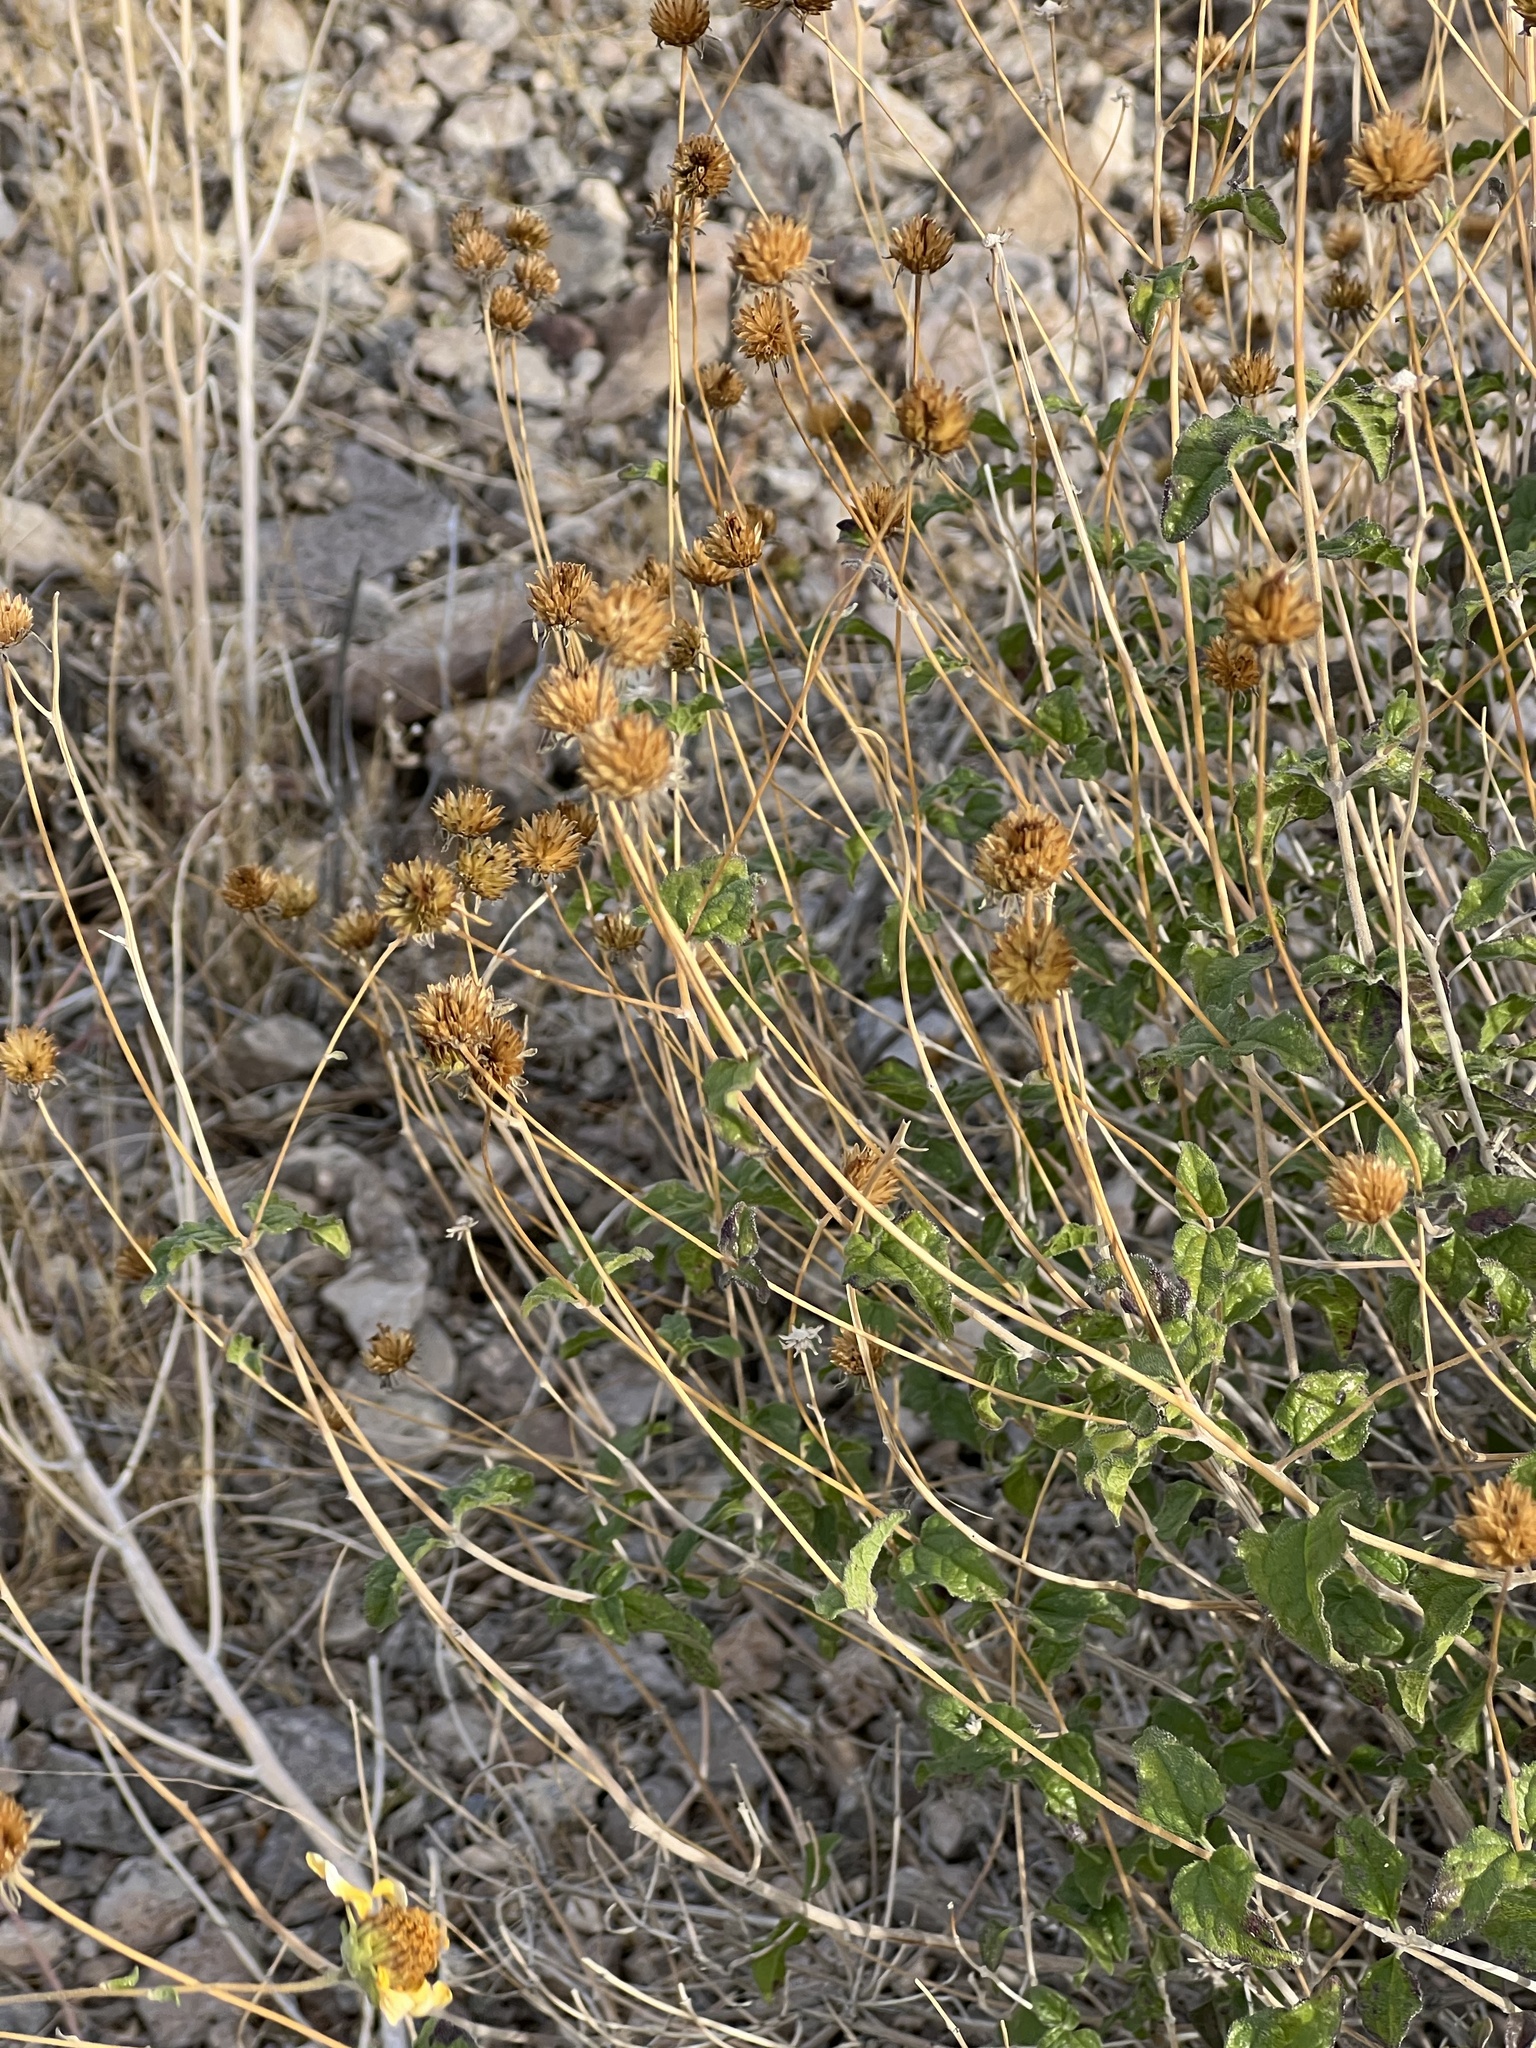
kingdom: Plantae
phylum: Tracheophyta
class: Magnoliopsida
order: Asterales
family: Asteraceae
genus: Bahiopsis
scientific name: Bahiopsis parishii
